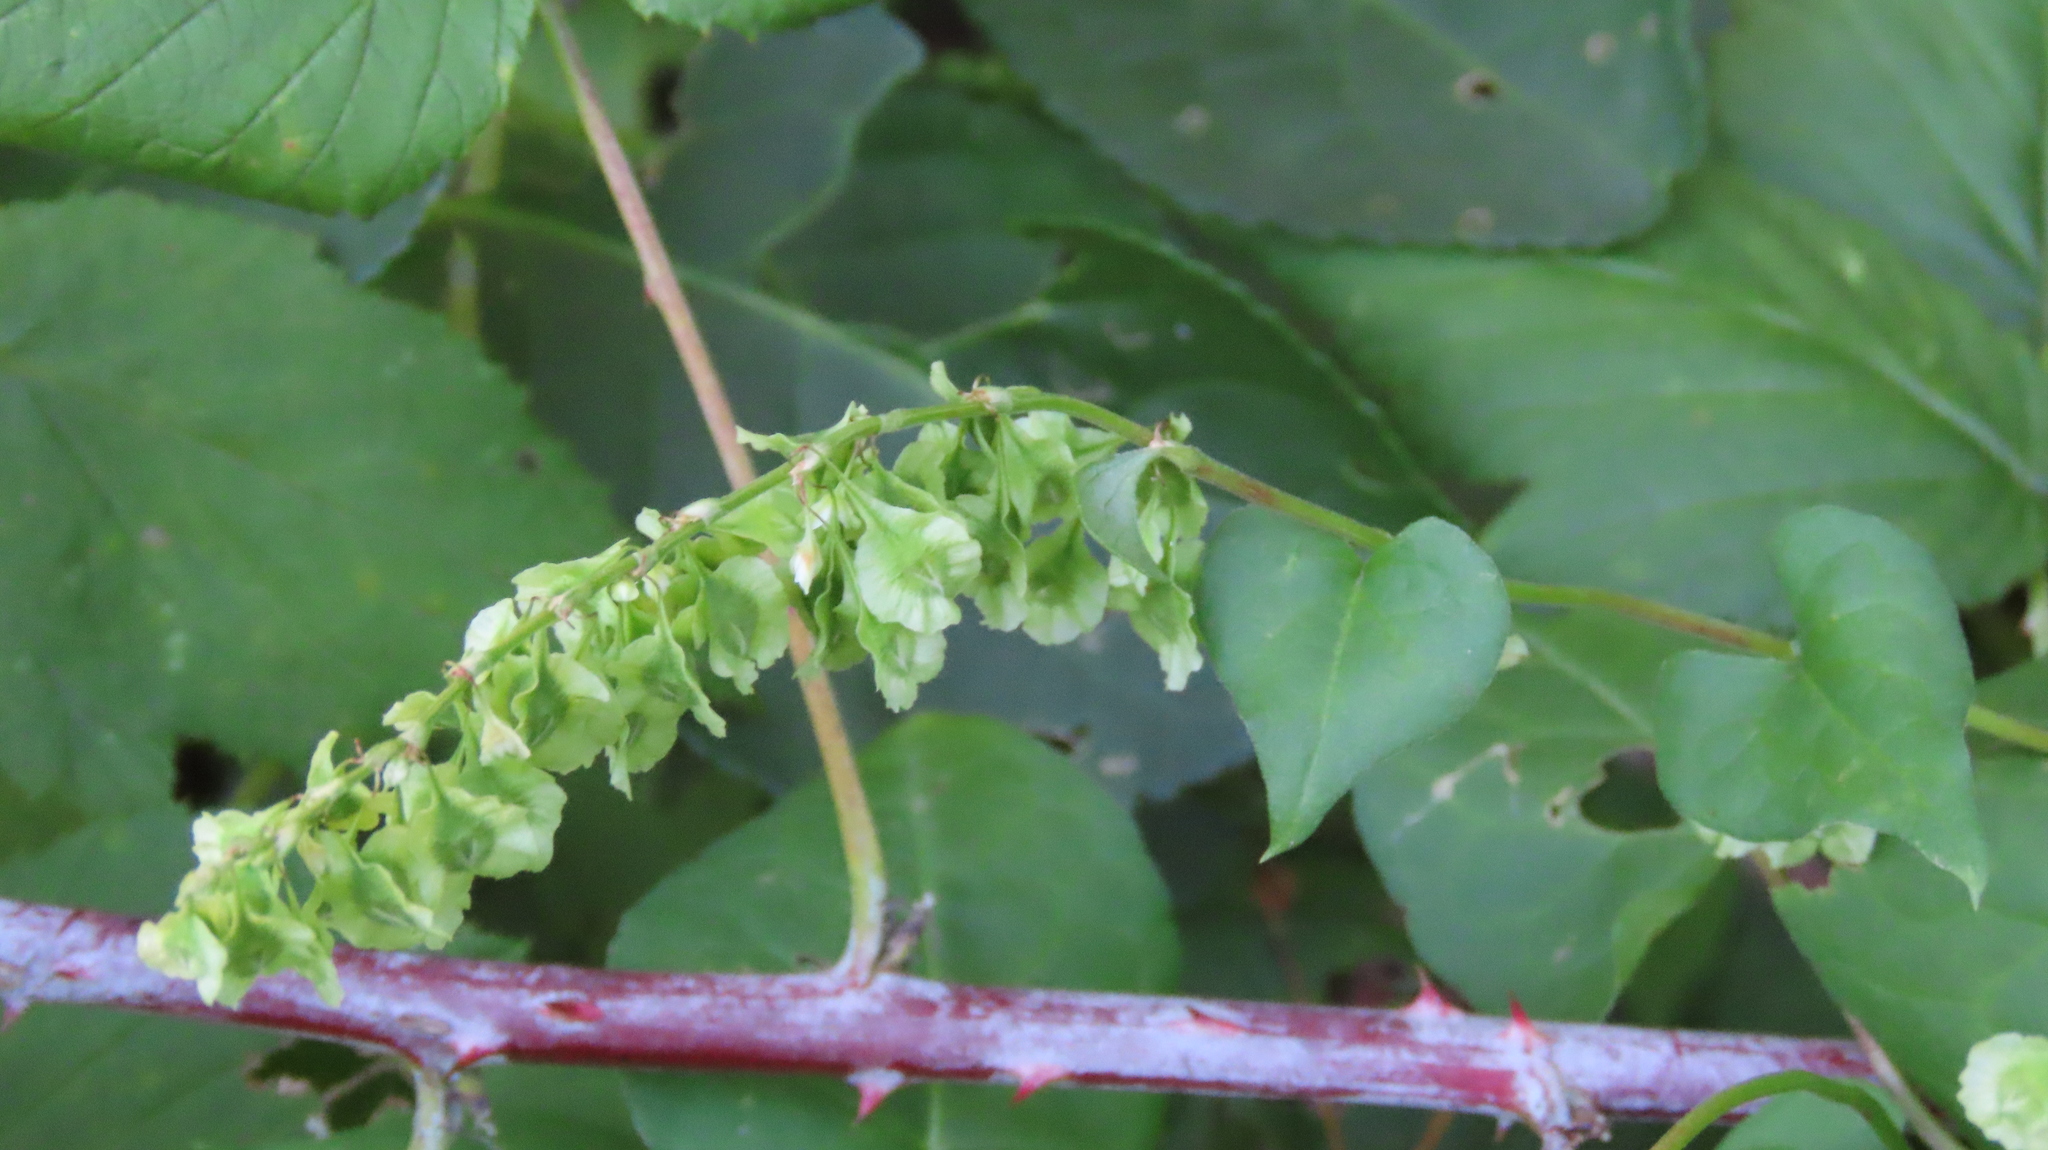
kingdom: Plantae
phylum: Tracheophyta
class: Magnoliopsida
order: Caryophyllales
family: Polygonaceae
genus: Fallopia
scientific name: Fallopia scandens
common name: Climbing false buckwheat
